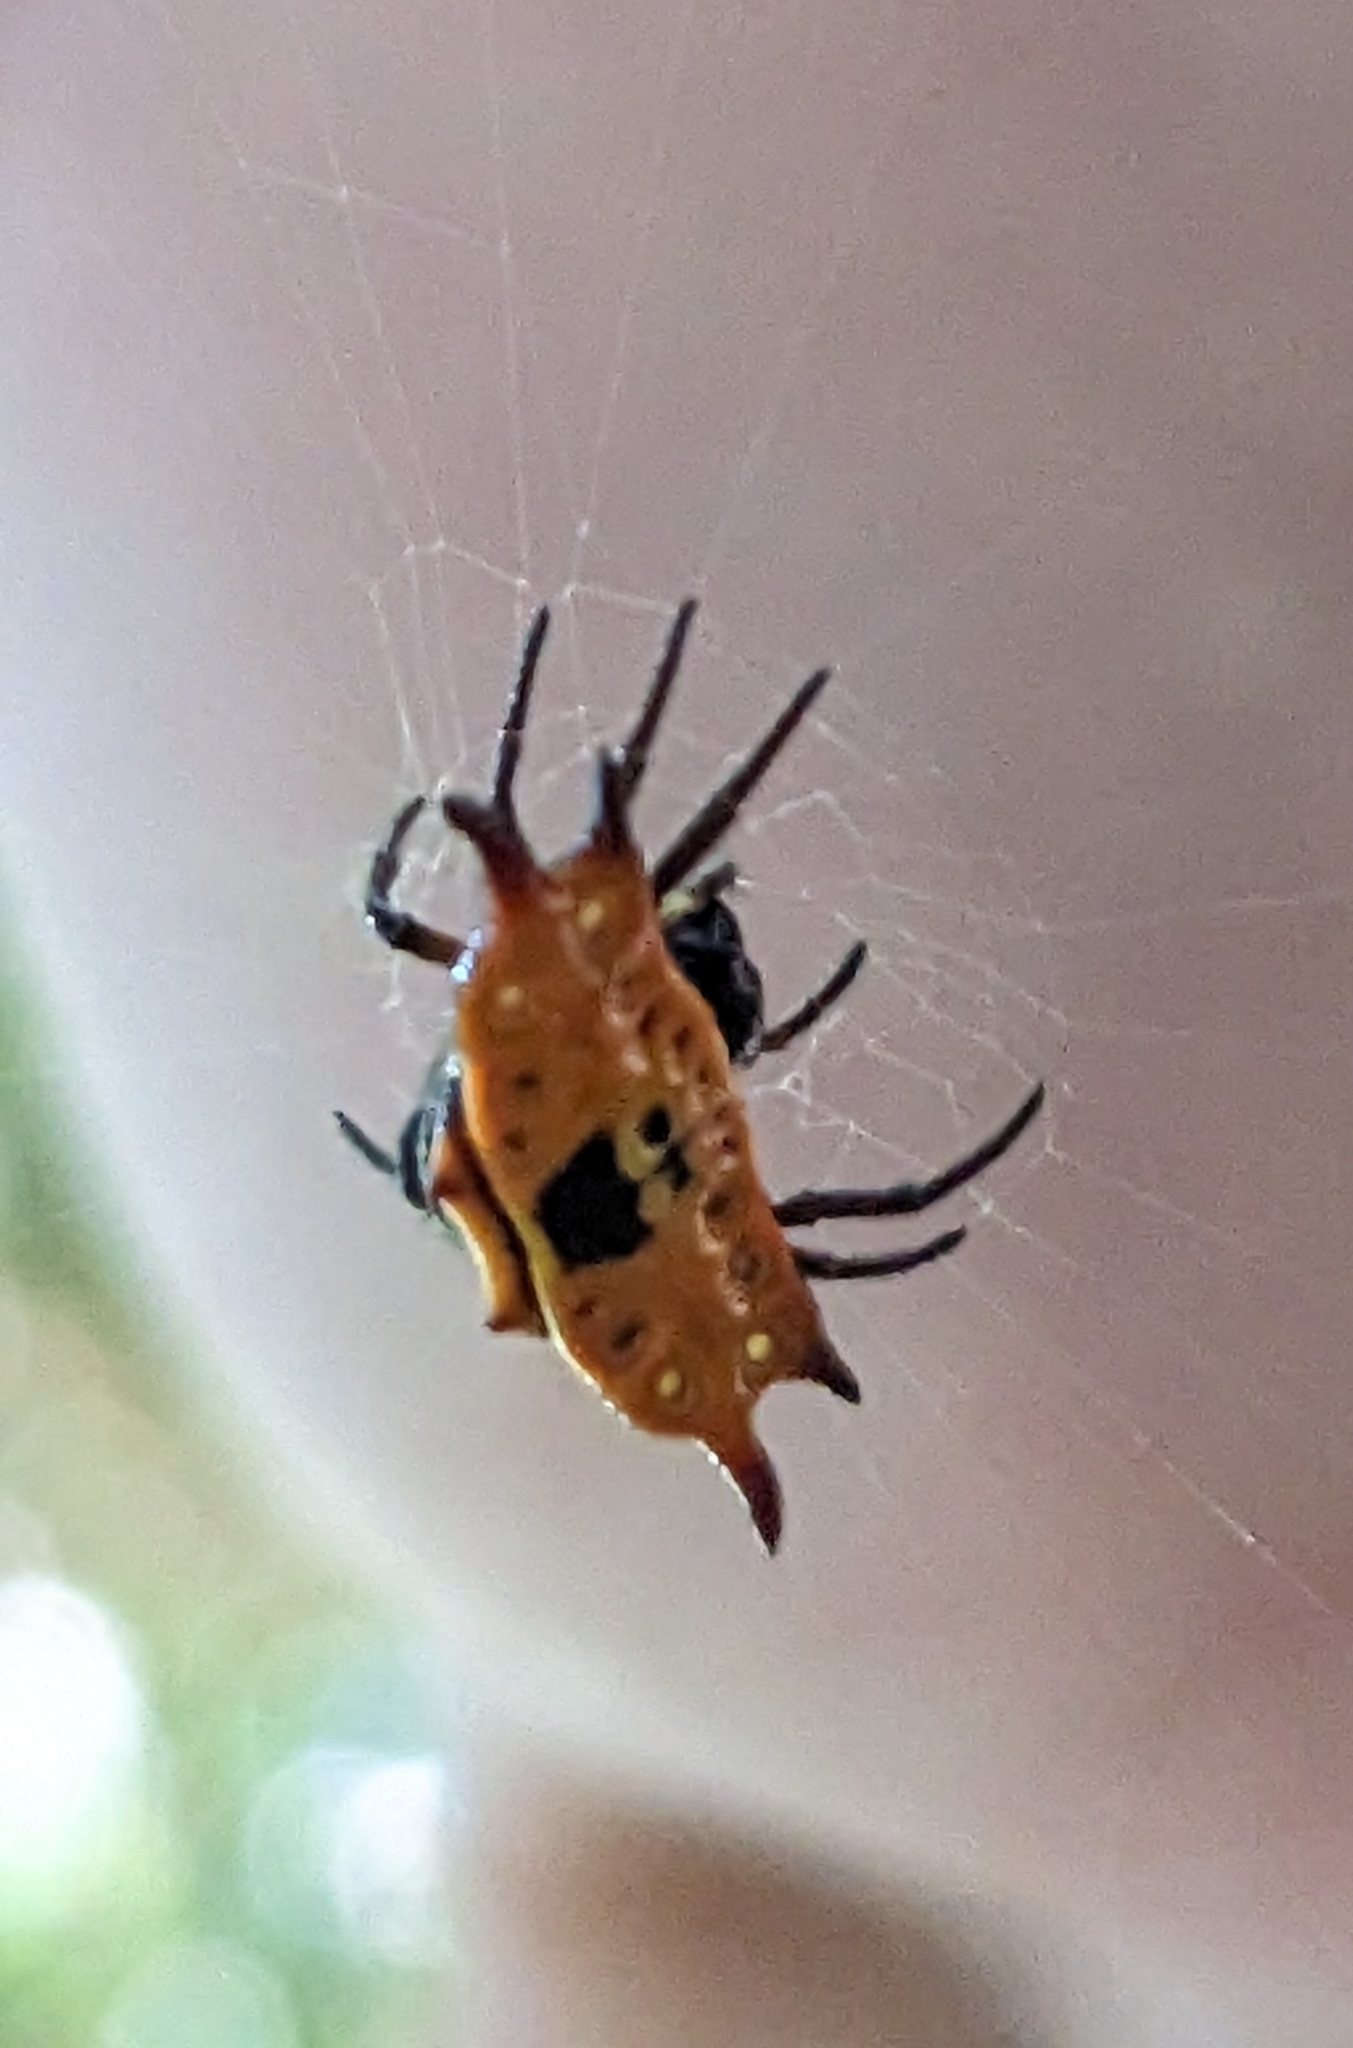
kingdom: Animalia
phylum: Arthropoda
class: Arachnida
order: Araneae
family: Araneidae
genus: Gasteracantha
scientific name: Gasteracantha quadrispinosa
